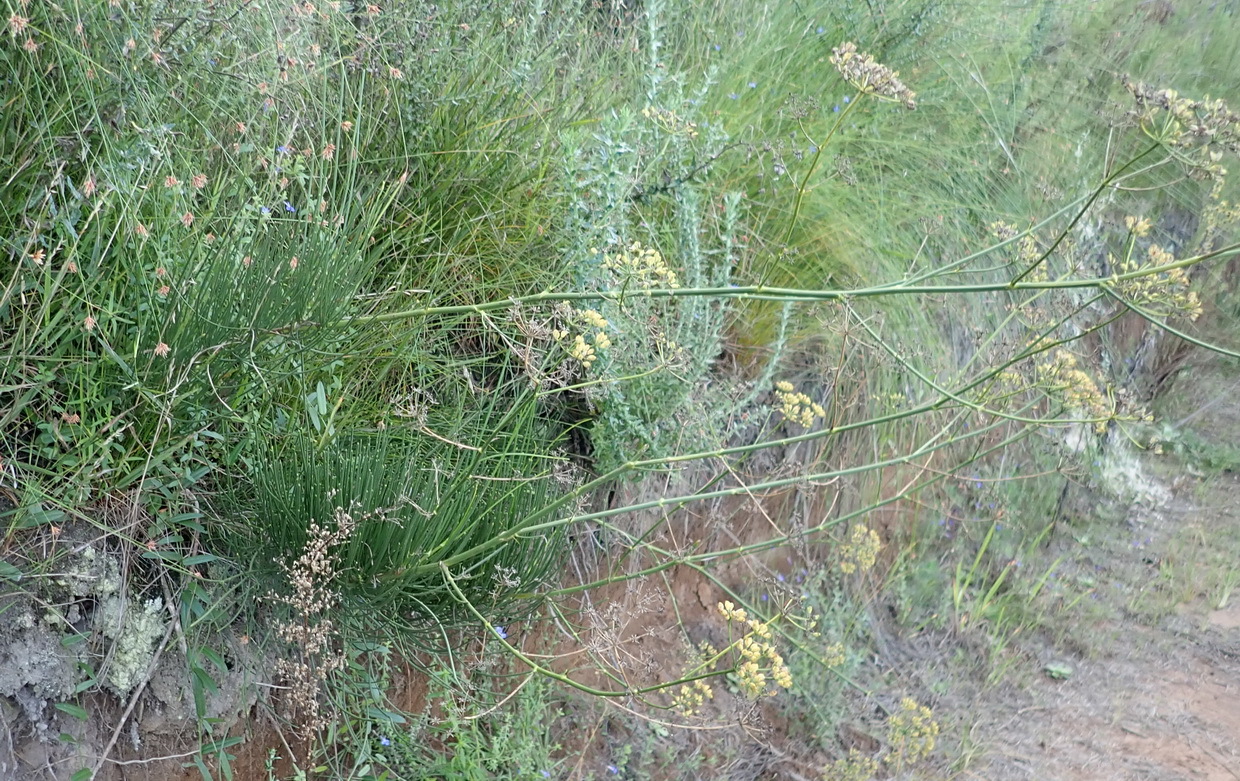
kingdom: Plantae
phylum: Tracheophyta
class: Magnoliopsida
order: Apiales
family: Apiaceae
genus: Anginon
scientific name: Anginon difforme
